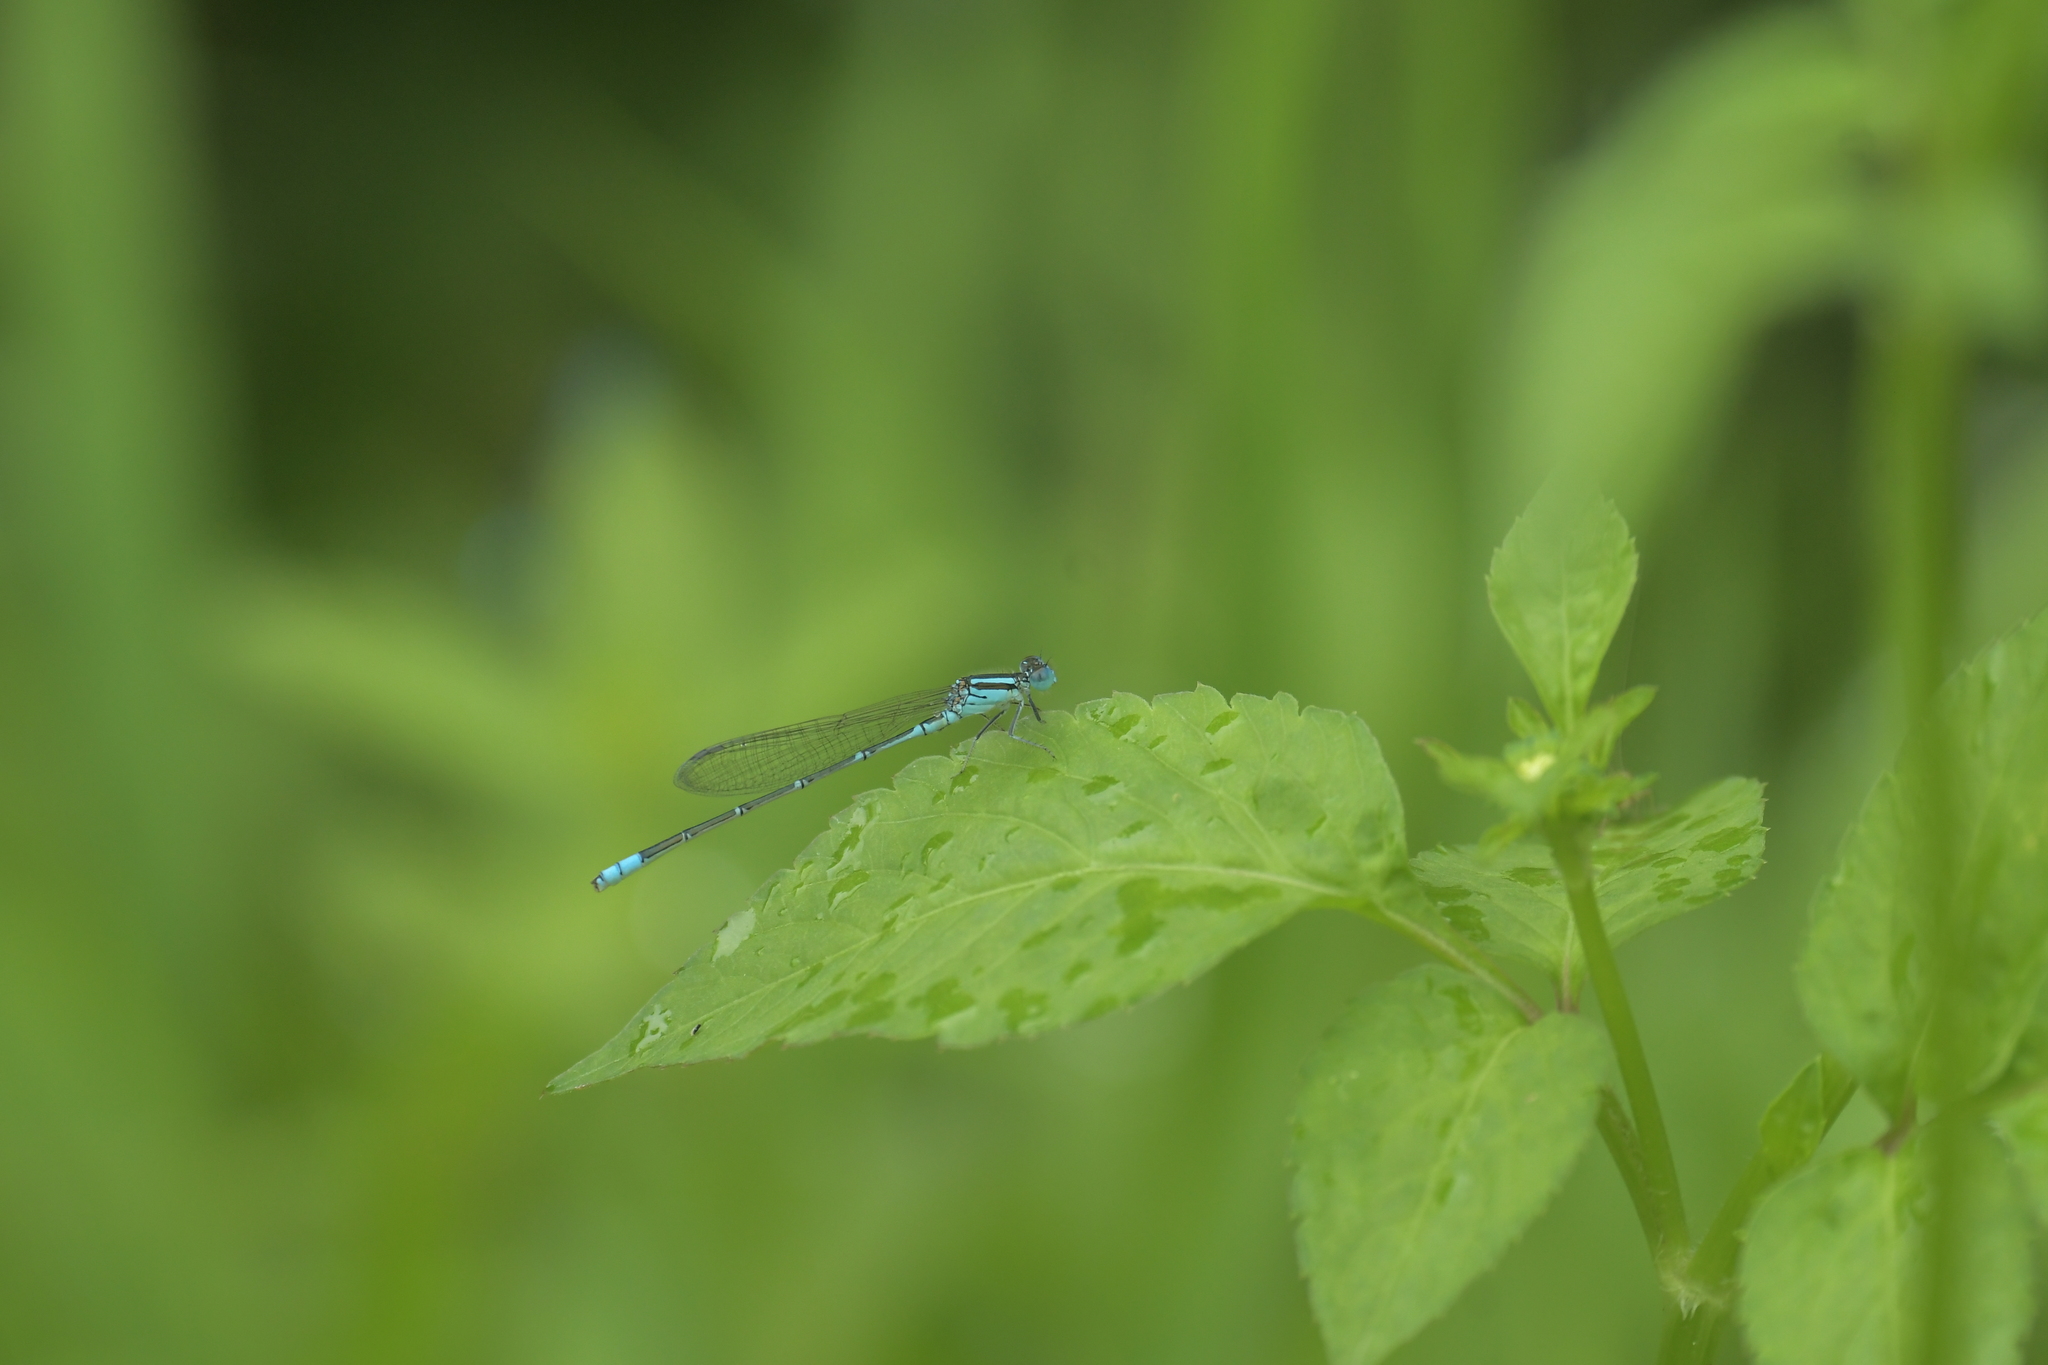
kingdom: Animalia
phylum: Arthropoda
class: Insecta
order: Odonata
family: Coenagrionidae
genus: Paracercion
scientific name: Paracercion melanotum
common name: Eastern lilysquatter
